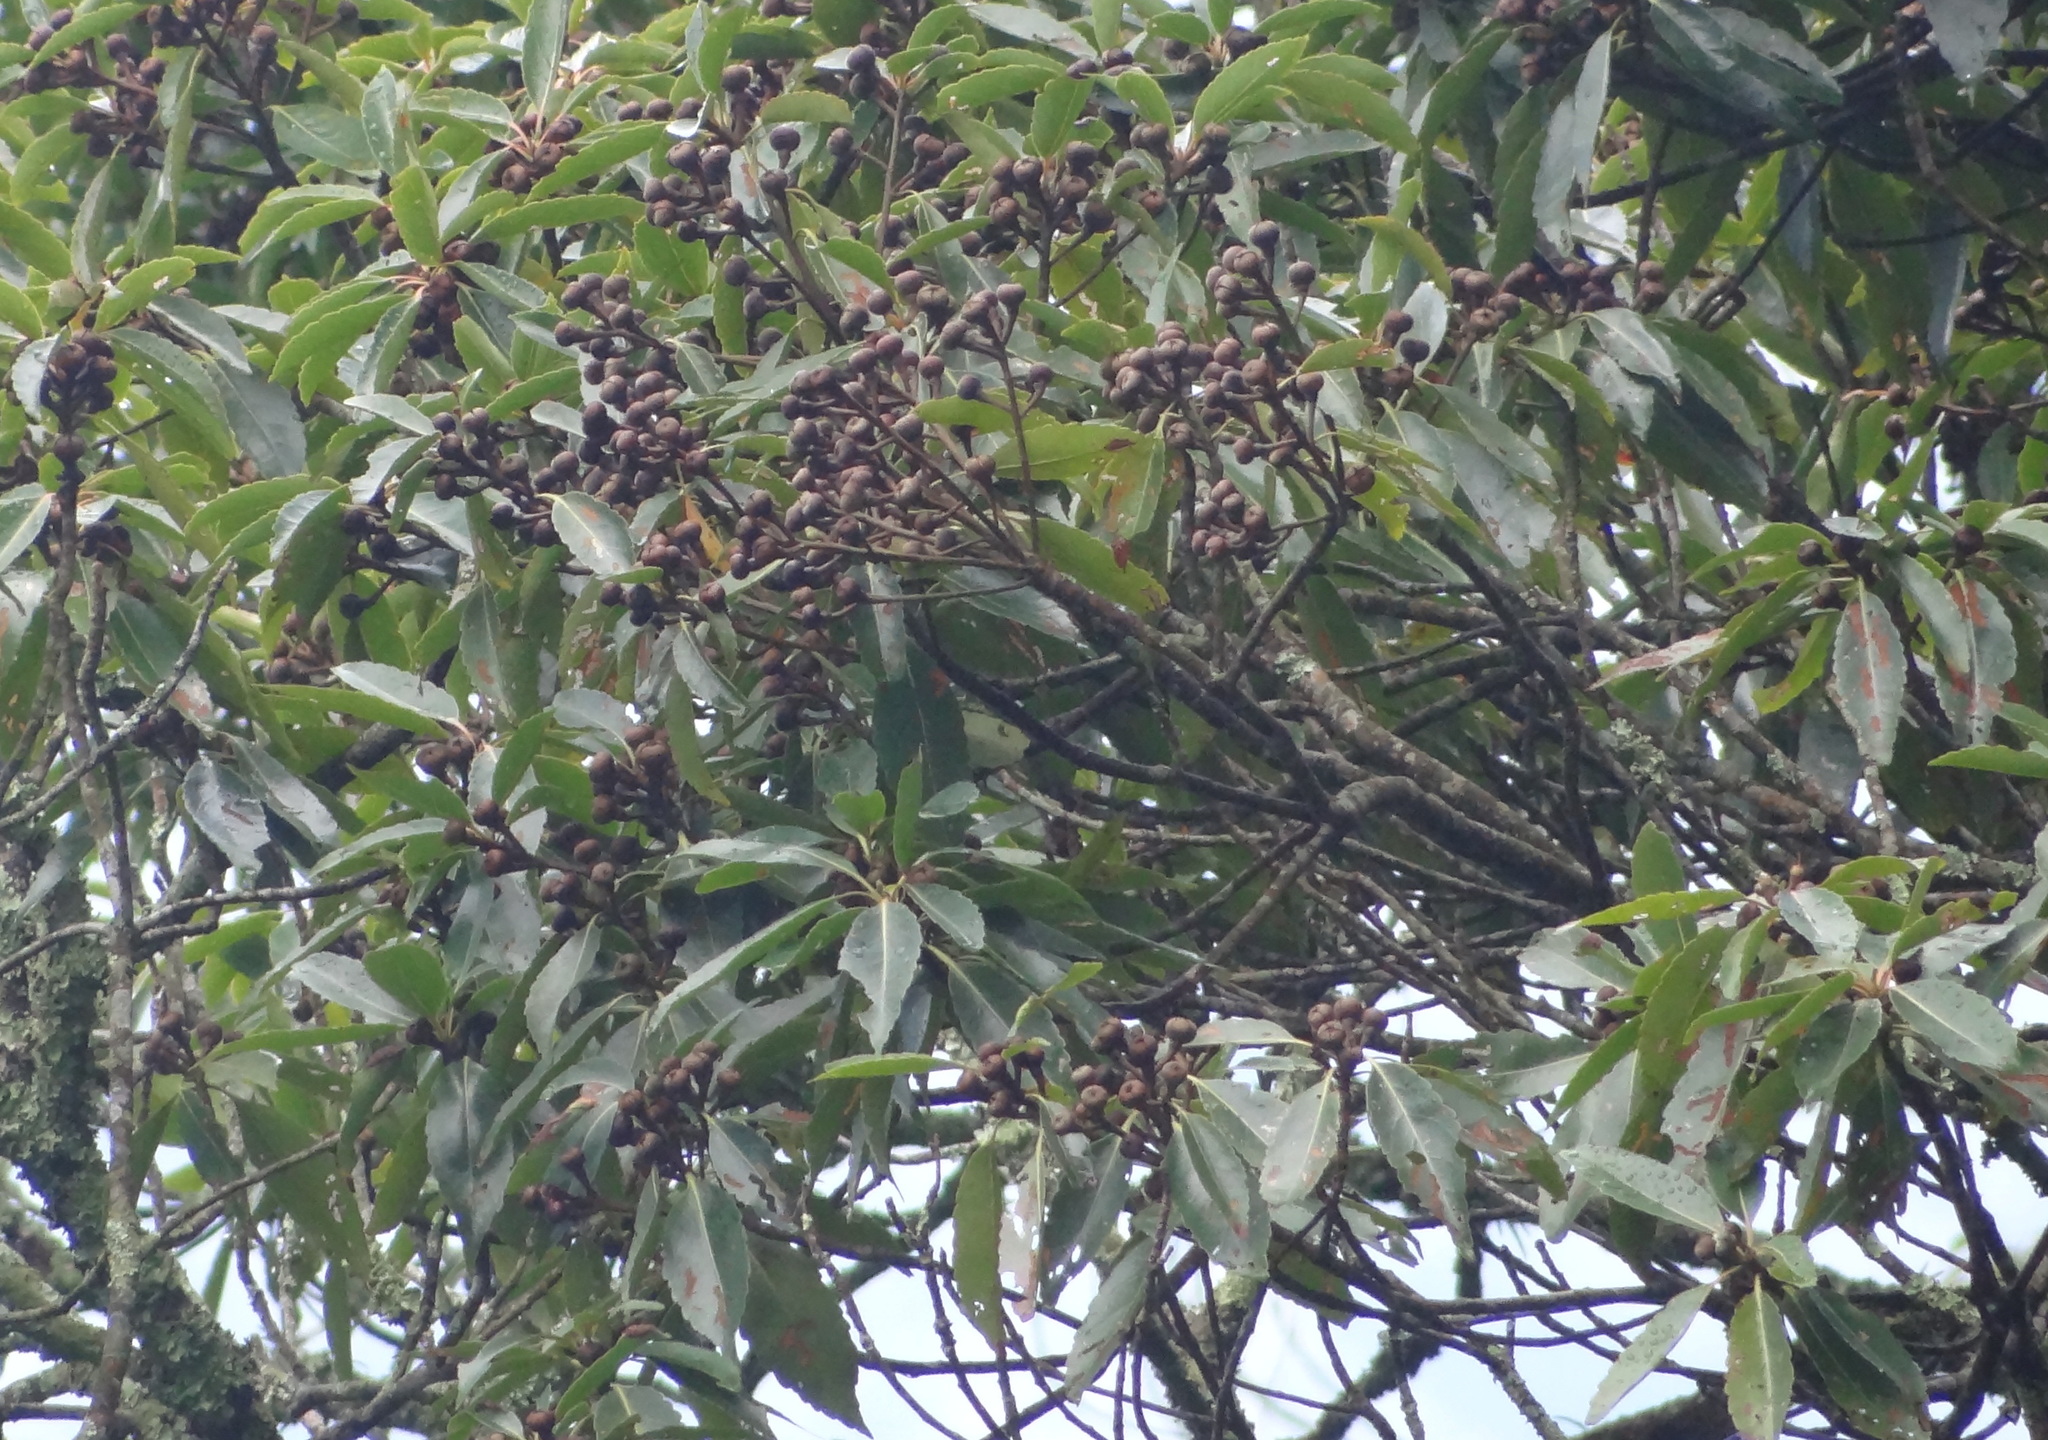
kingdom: Plantae
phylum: Tracheophyta
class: Magnoliopsida
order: Ericales
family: Theaceae
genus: Schima
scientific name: Schima superba
